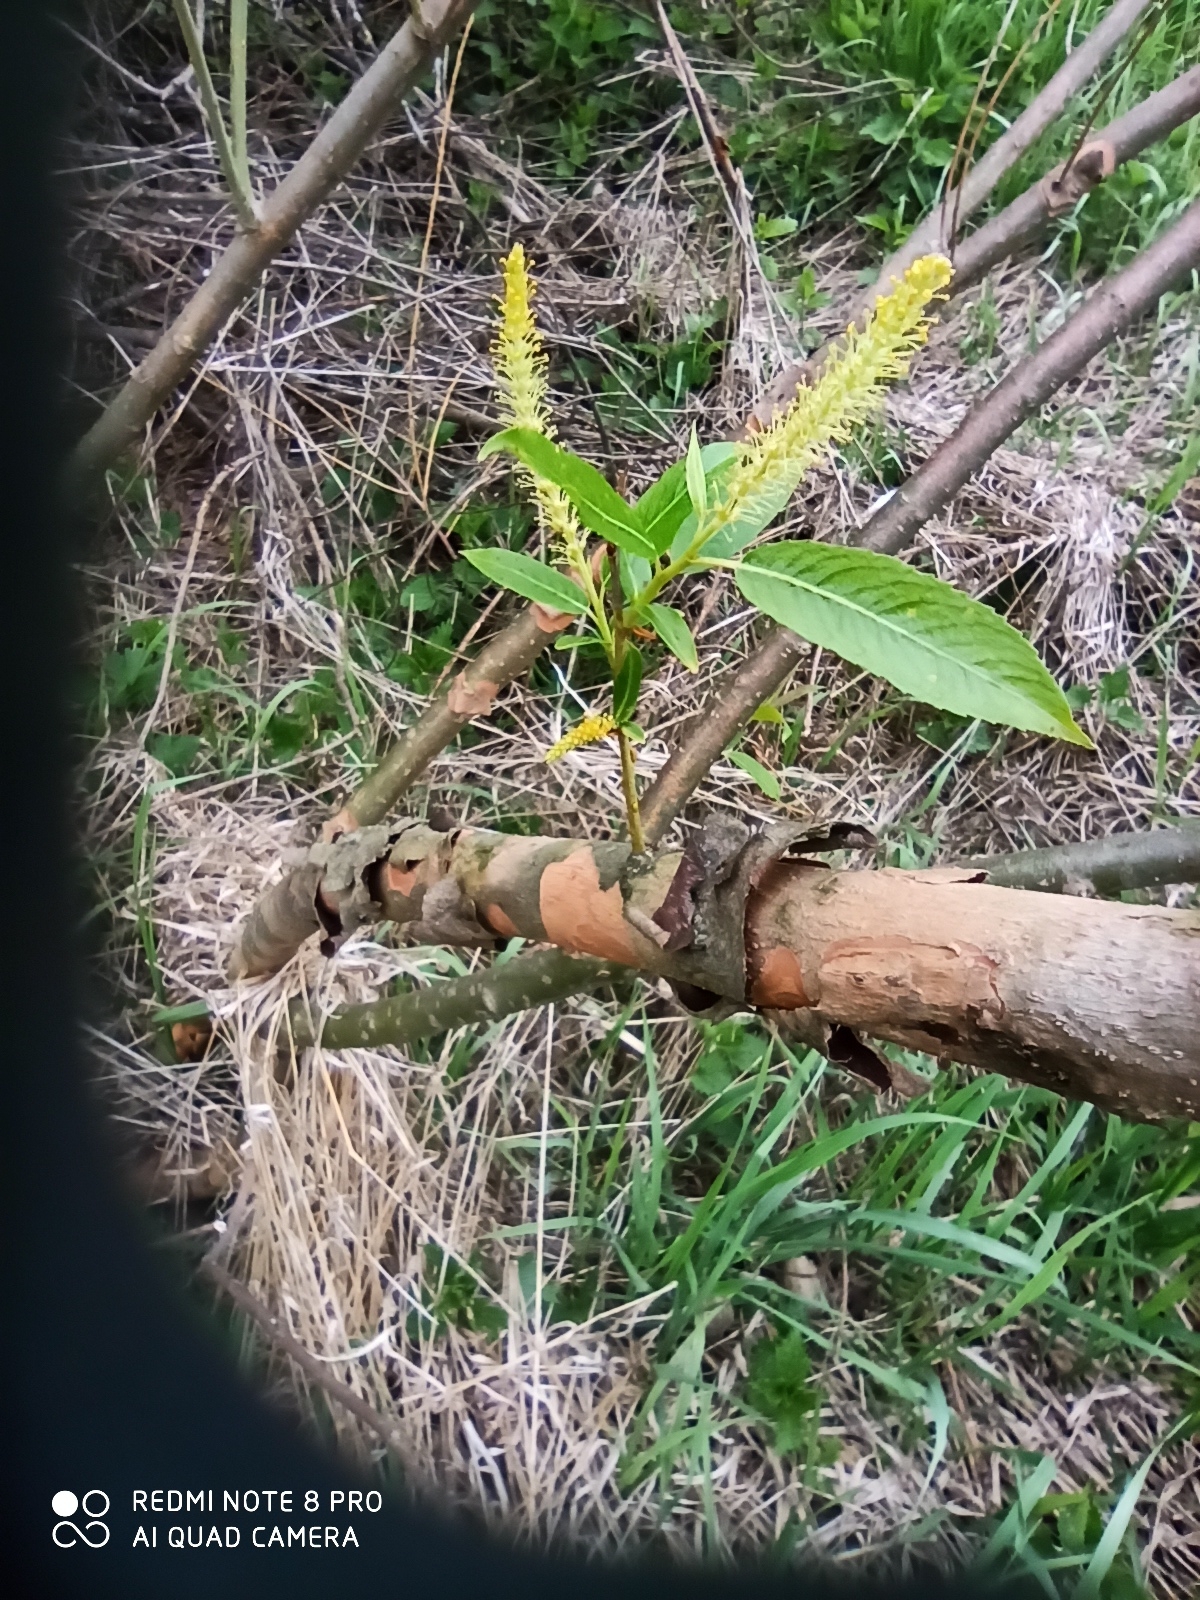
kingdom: Plantae
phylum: Tracheophyta
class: Magnoliopsida
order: Malpighiales
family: Salicaceae
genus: Salix
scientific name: Salix triandra
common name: Almond willow
